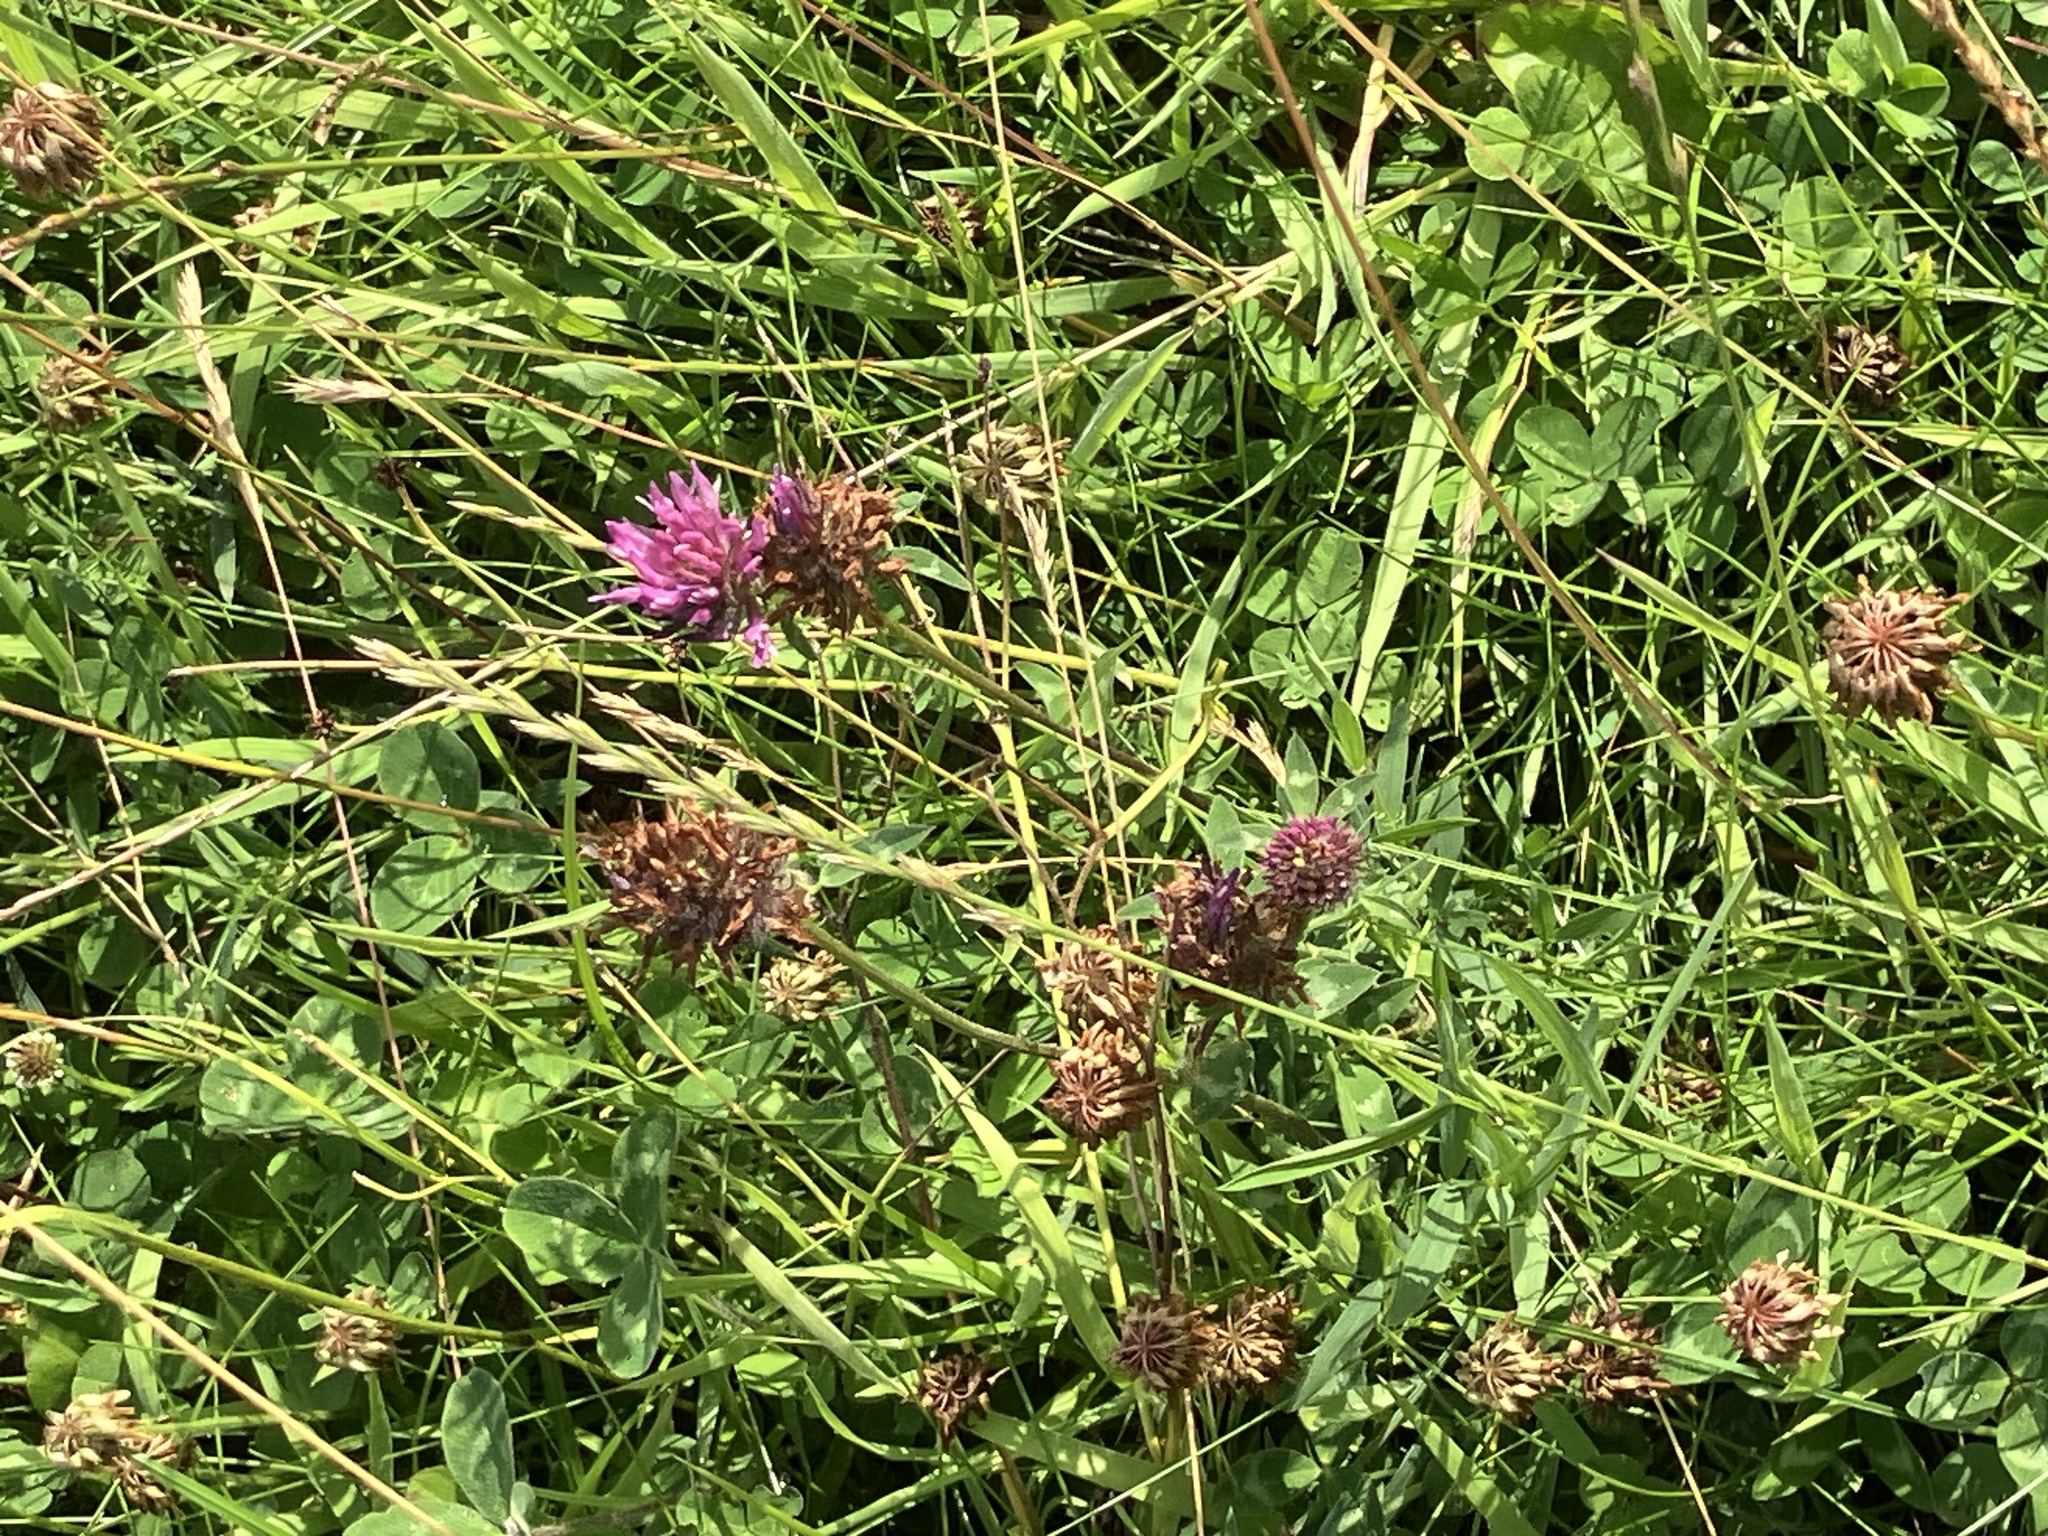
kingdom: Plantae
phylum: Tracheophyta
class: Magnoliopsida
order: Fabales
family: Fabaceae
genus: Trifolium
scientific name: Trifolium pratense
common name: Red clover
